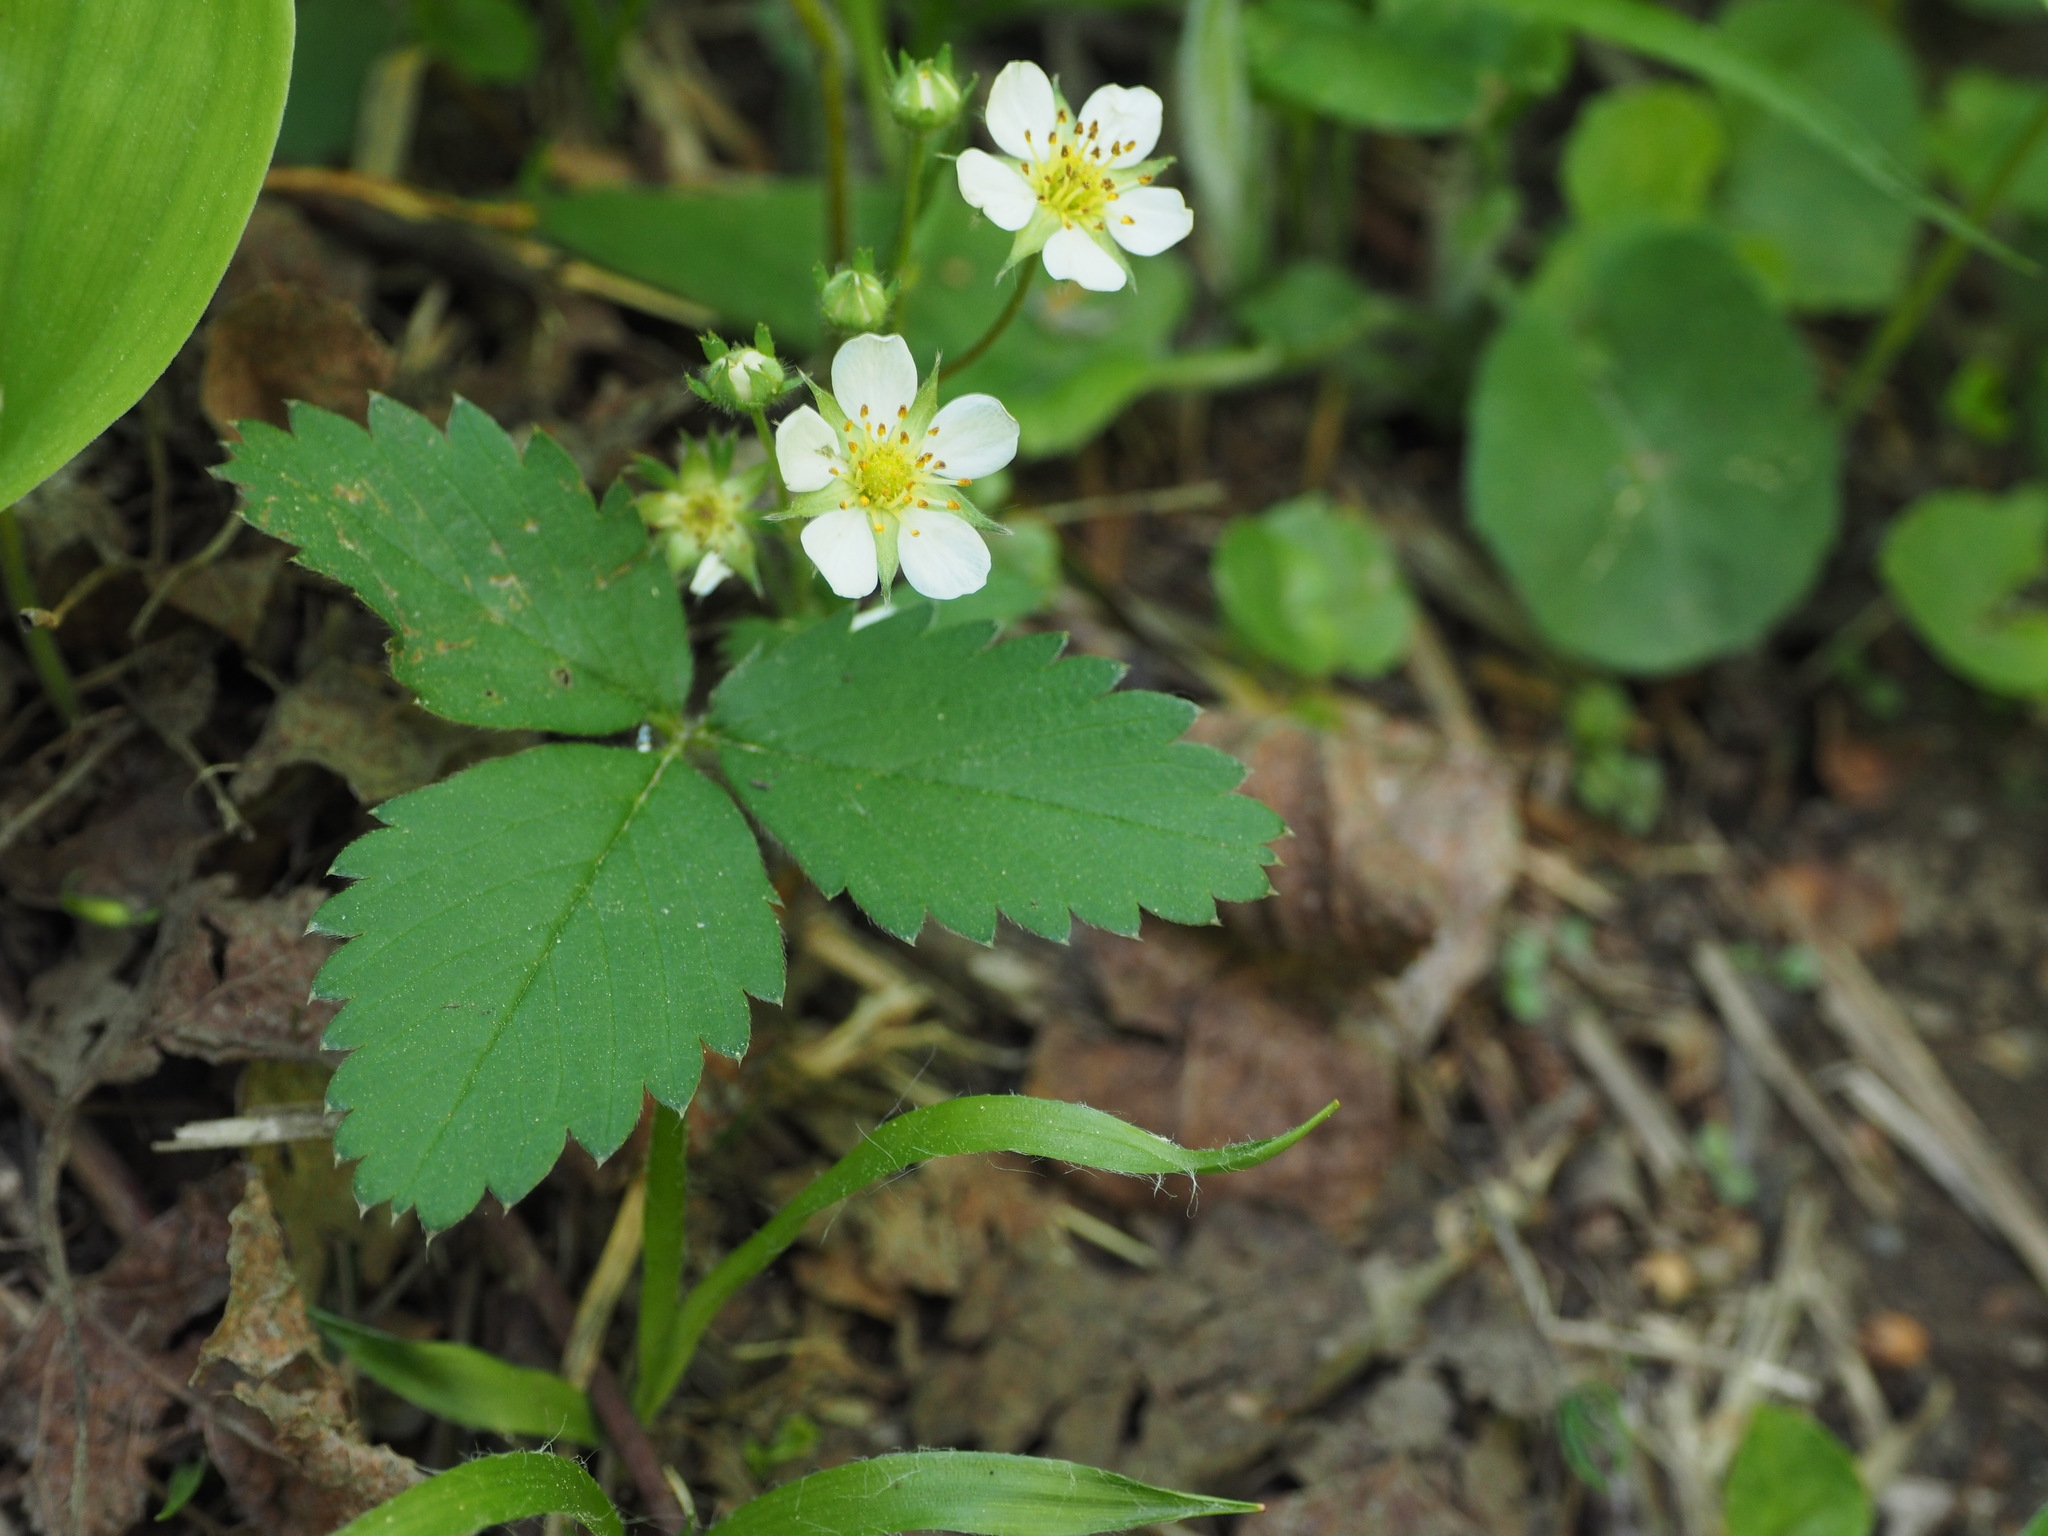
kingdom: Plantae
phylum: Tracheophyta
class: Magnoliopsida
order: Rosales
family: Rosaceae
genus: Fragaria
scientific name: Fragaria virginiana
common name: Thickleaved wild strawberry
